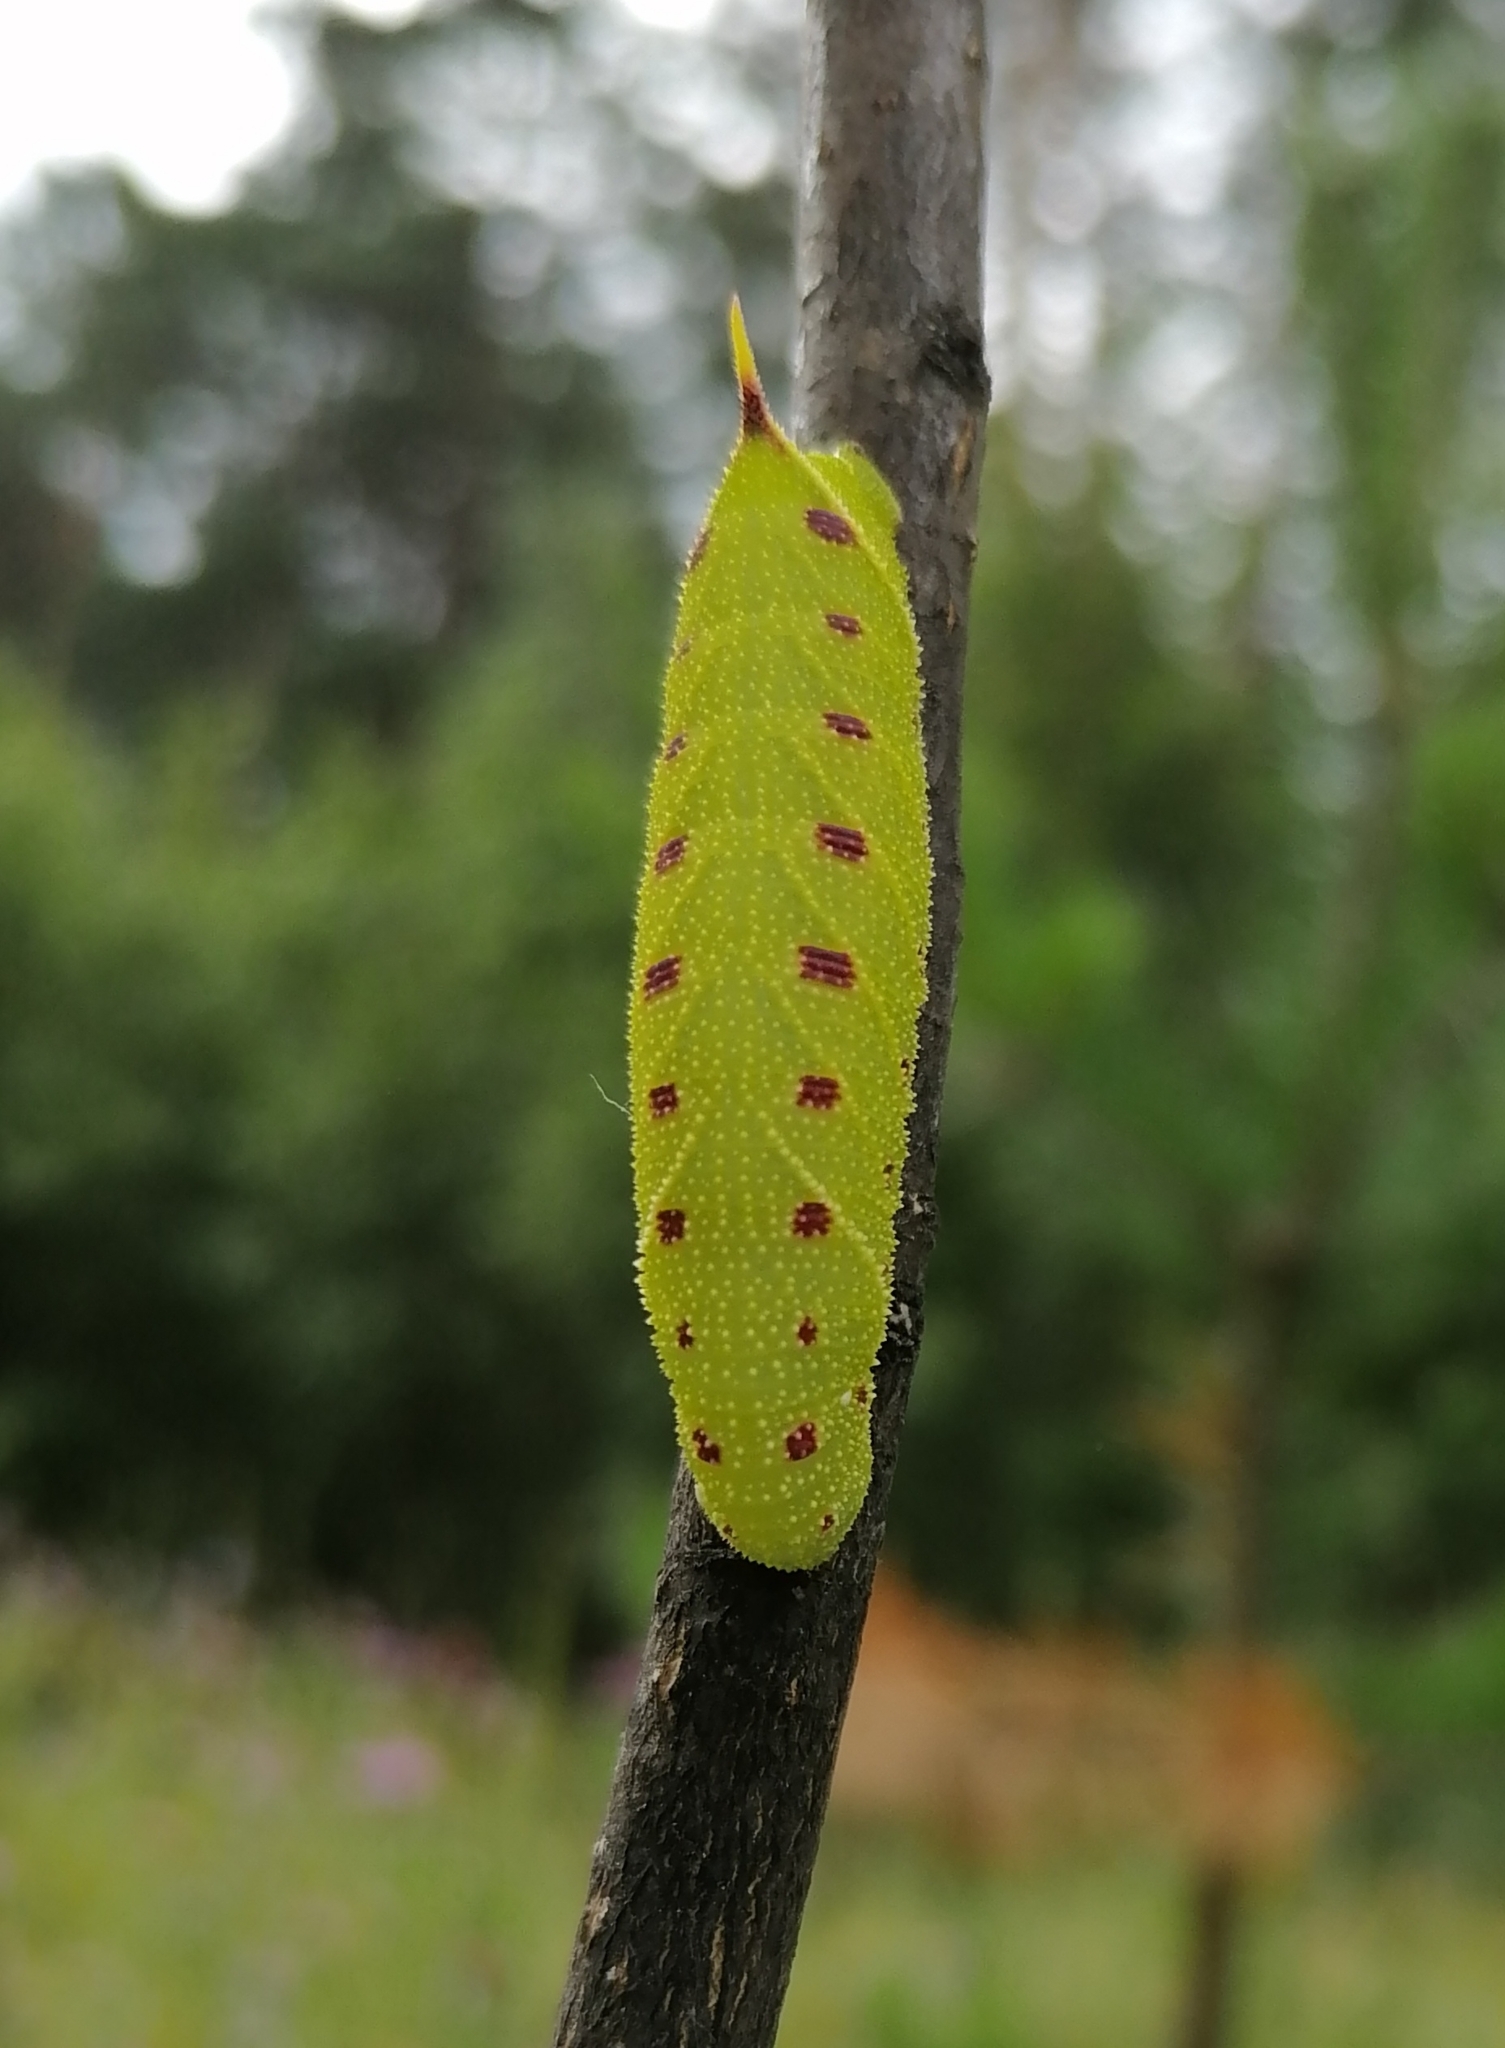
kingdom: Animalia
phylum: Arthropoda
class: Insecta
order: Lepidoptera
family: Sphingidae
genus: Laothoe
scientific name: Laothoe populi
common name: Poplar hawk-moth
